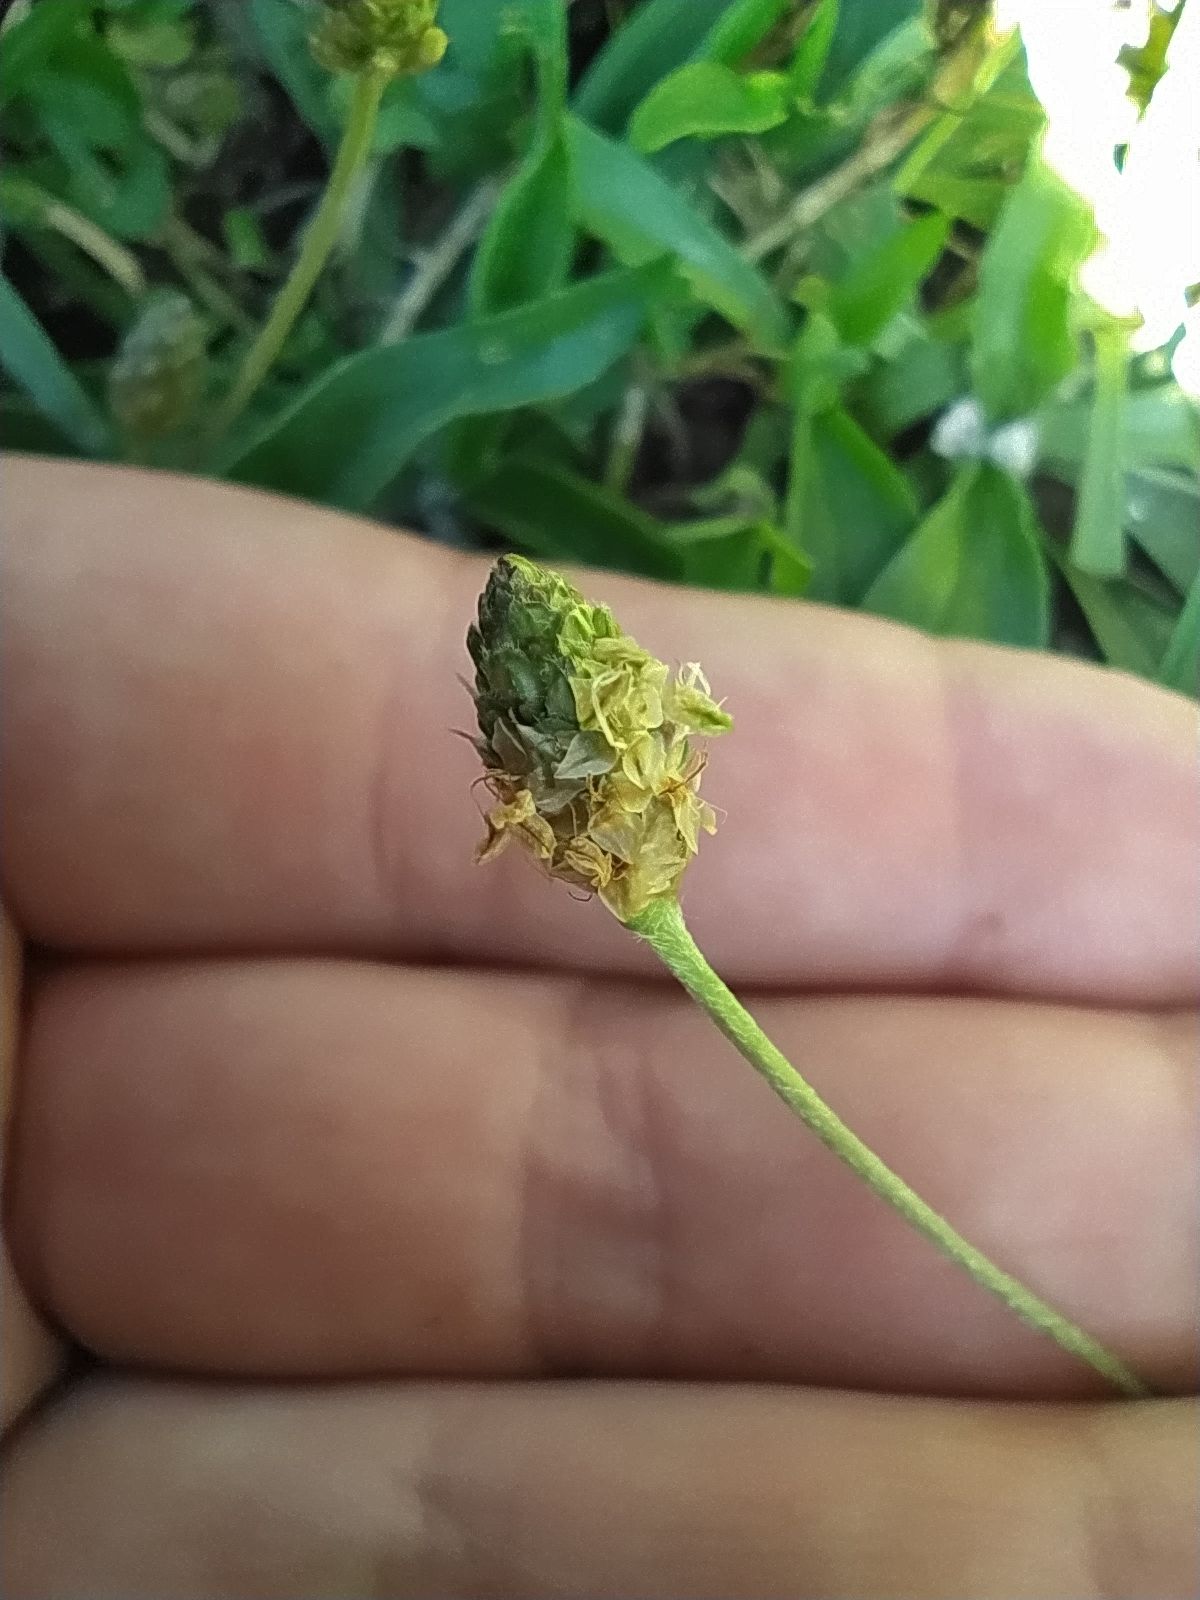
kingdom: Plantae
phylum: Tracheophyta
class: Magnoliopsida
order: Lamiales
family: Plantaginaceae
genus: Plantago
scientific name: Plantago lanceolata
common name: Ribwort plantain
